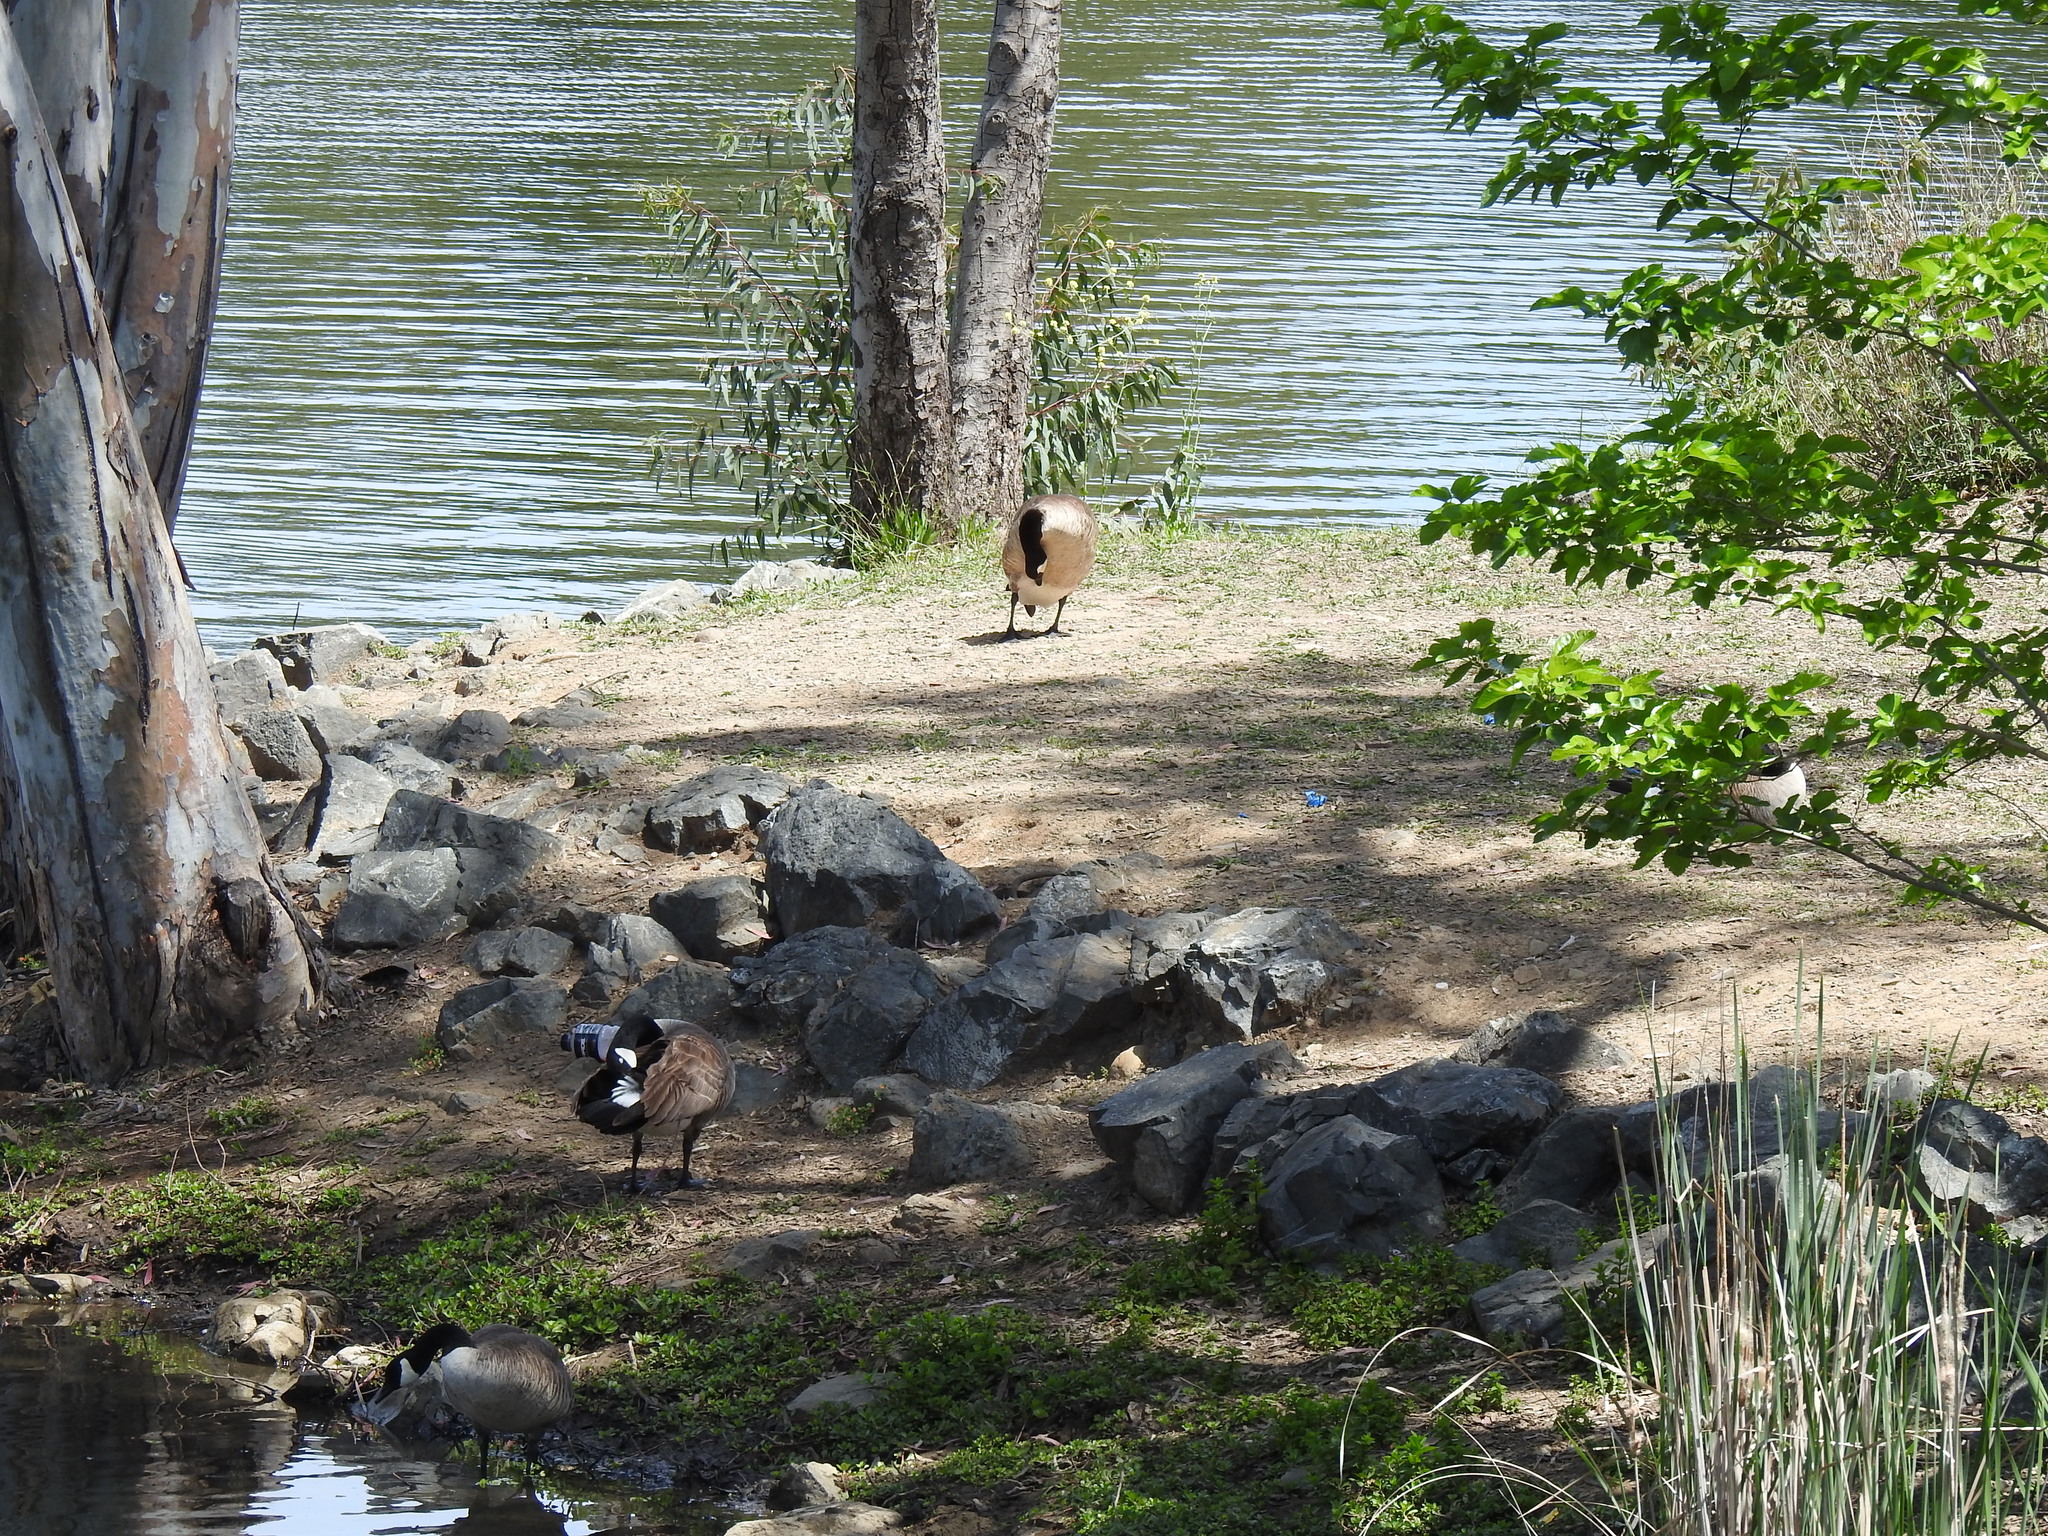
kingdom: Animalia
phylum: Chordata
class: Aves
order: Anseriformes
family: Anatidae
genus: Branta
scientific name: Branta canadensis
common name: Canada goose
